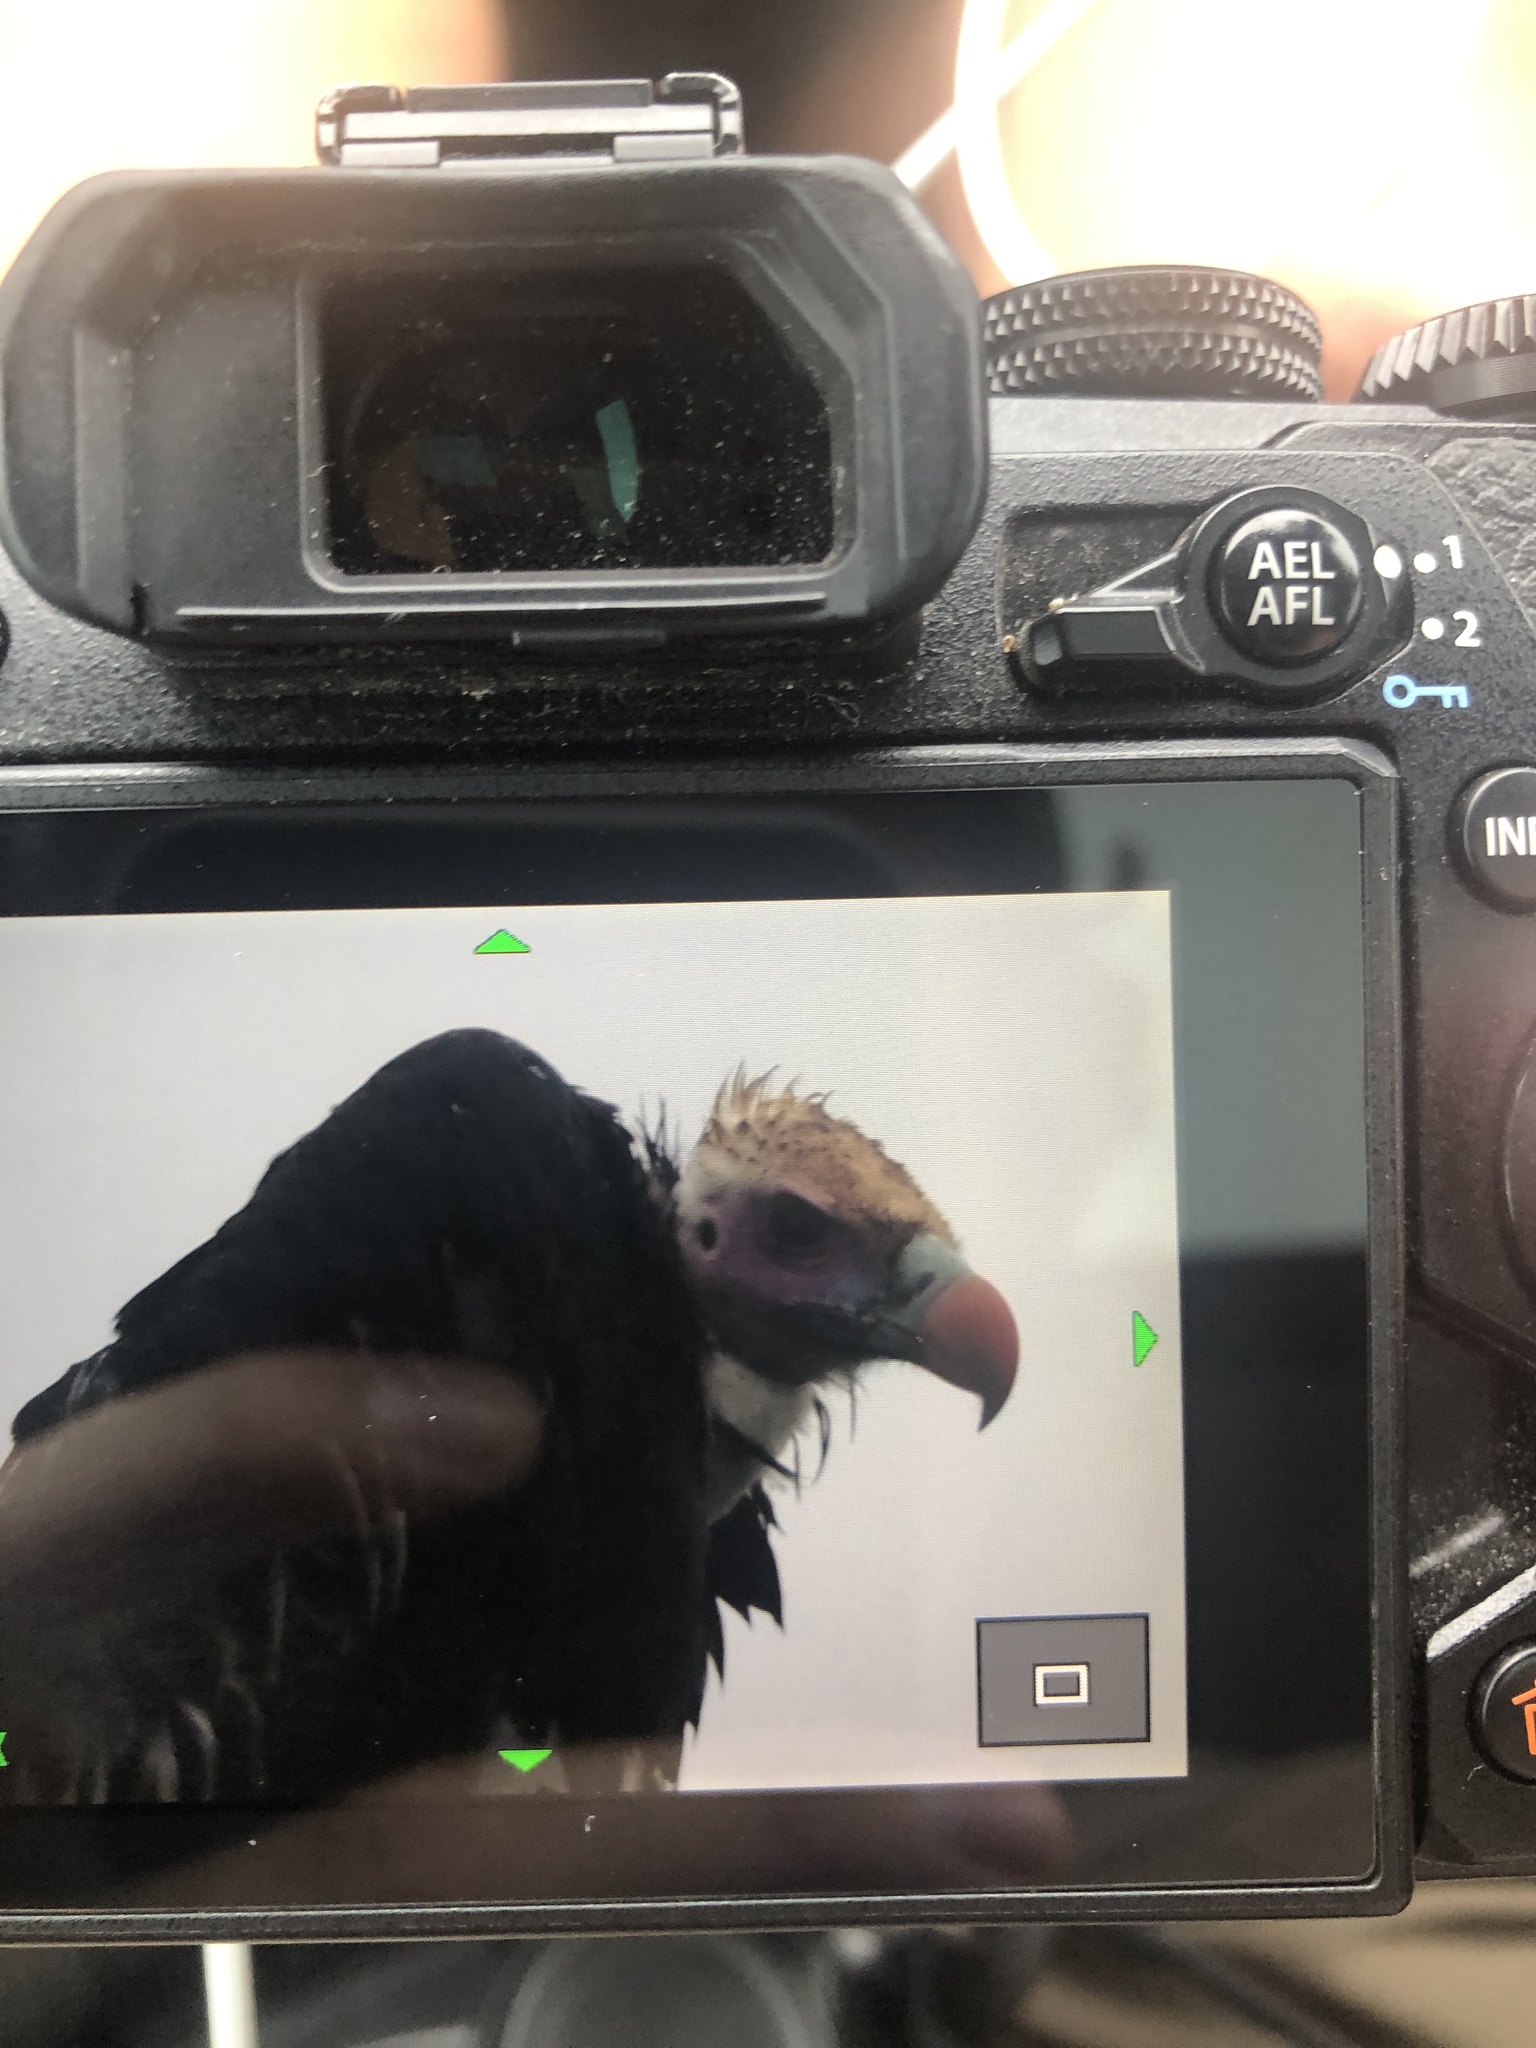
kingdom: Animalia
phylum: Chordata
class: Aves
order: Accipitriformes
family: Accipitridae
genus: Trigonoceps
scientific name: Trigonoceps occipitalis
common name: White-headed vulture
